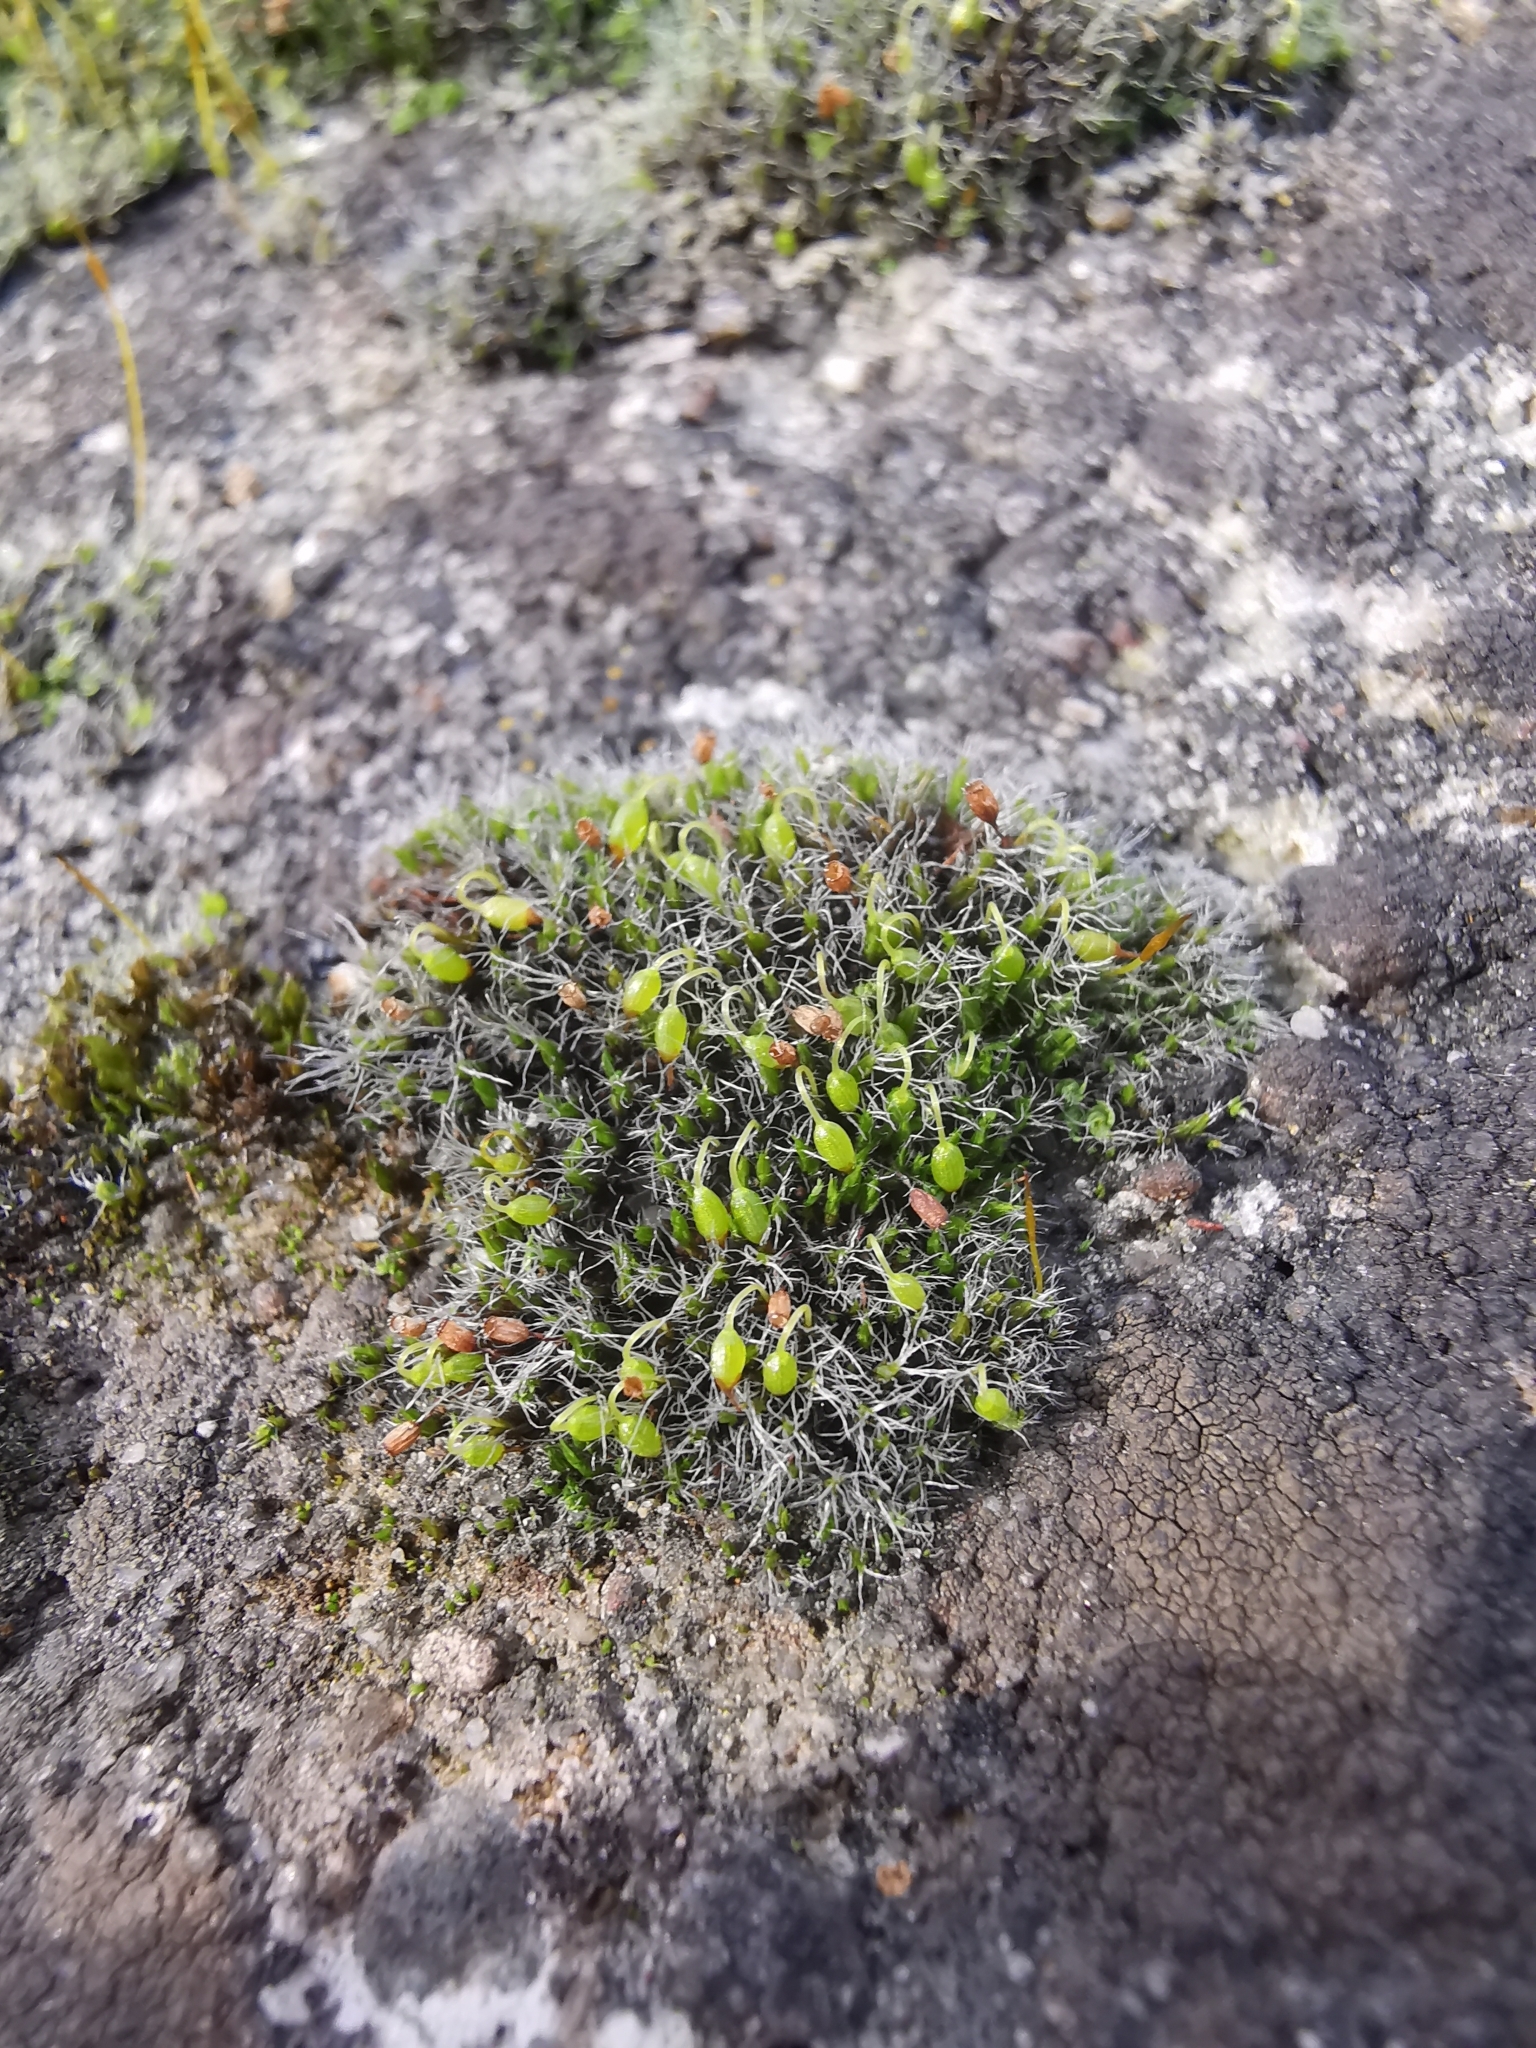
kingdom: Plantae
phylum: Bryophyta
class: Bryopsida
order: Grimmiales
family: Grimmiaceae
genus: Grimmia
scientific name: Grimmia pulvinata
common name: Grey-cushioned grimmia
